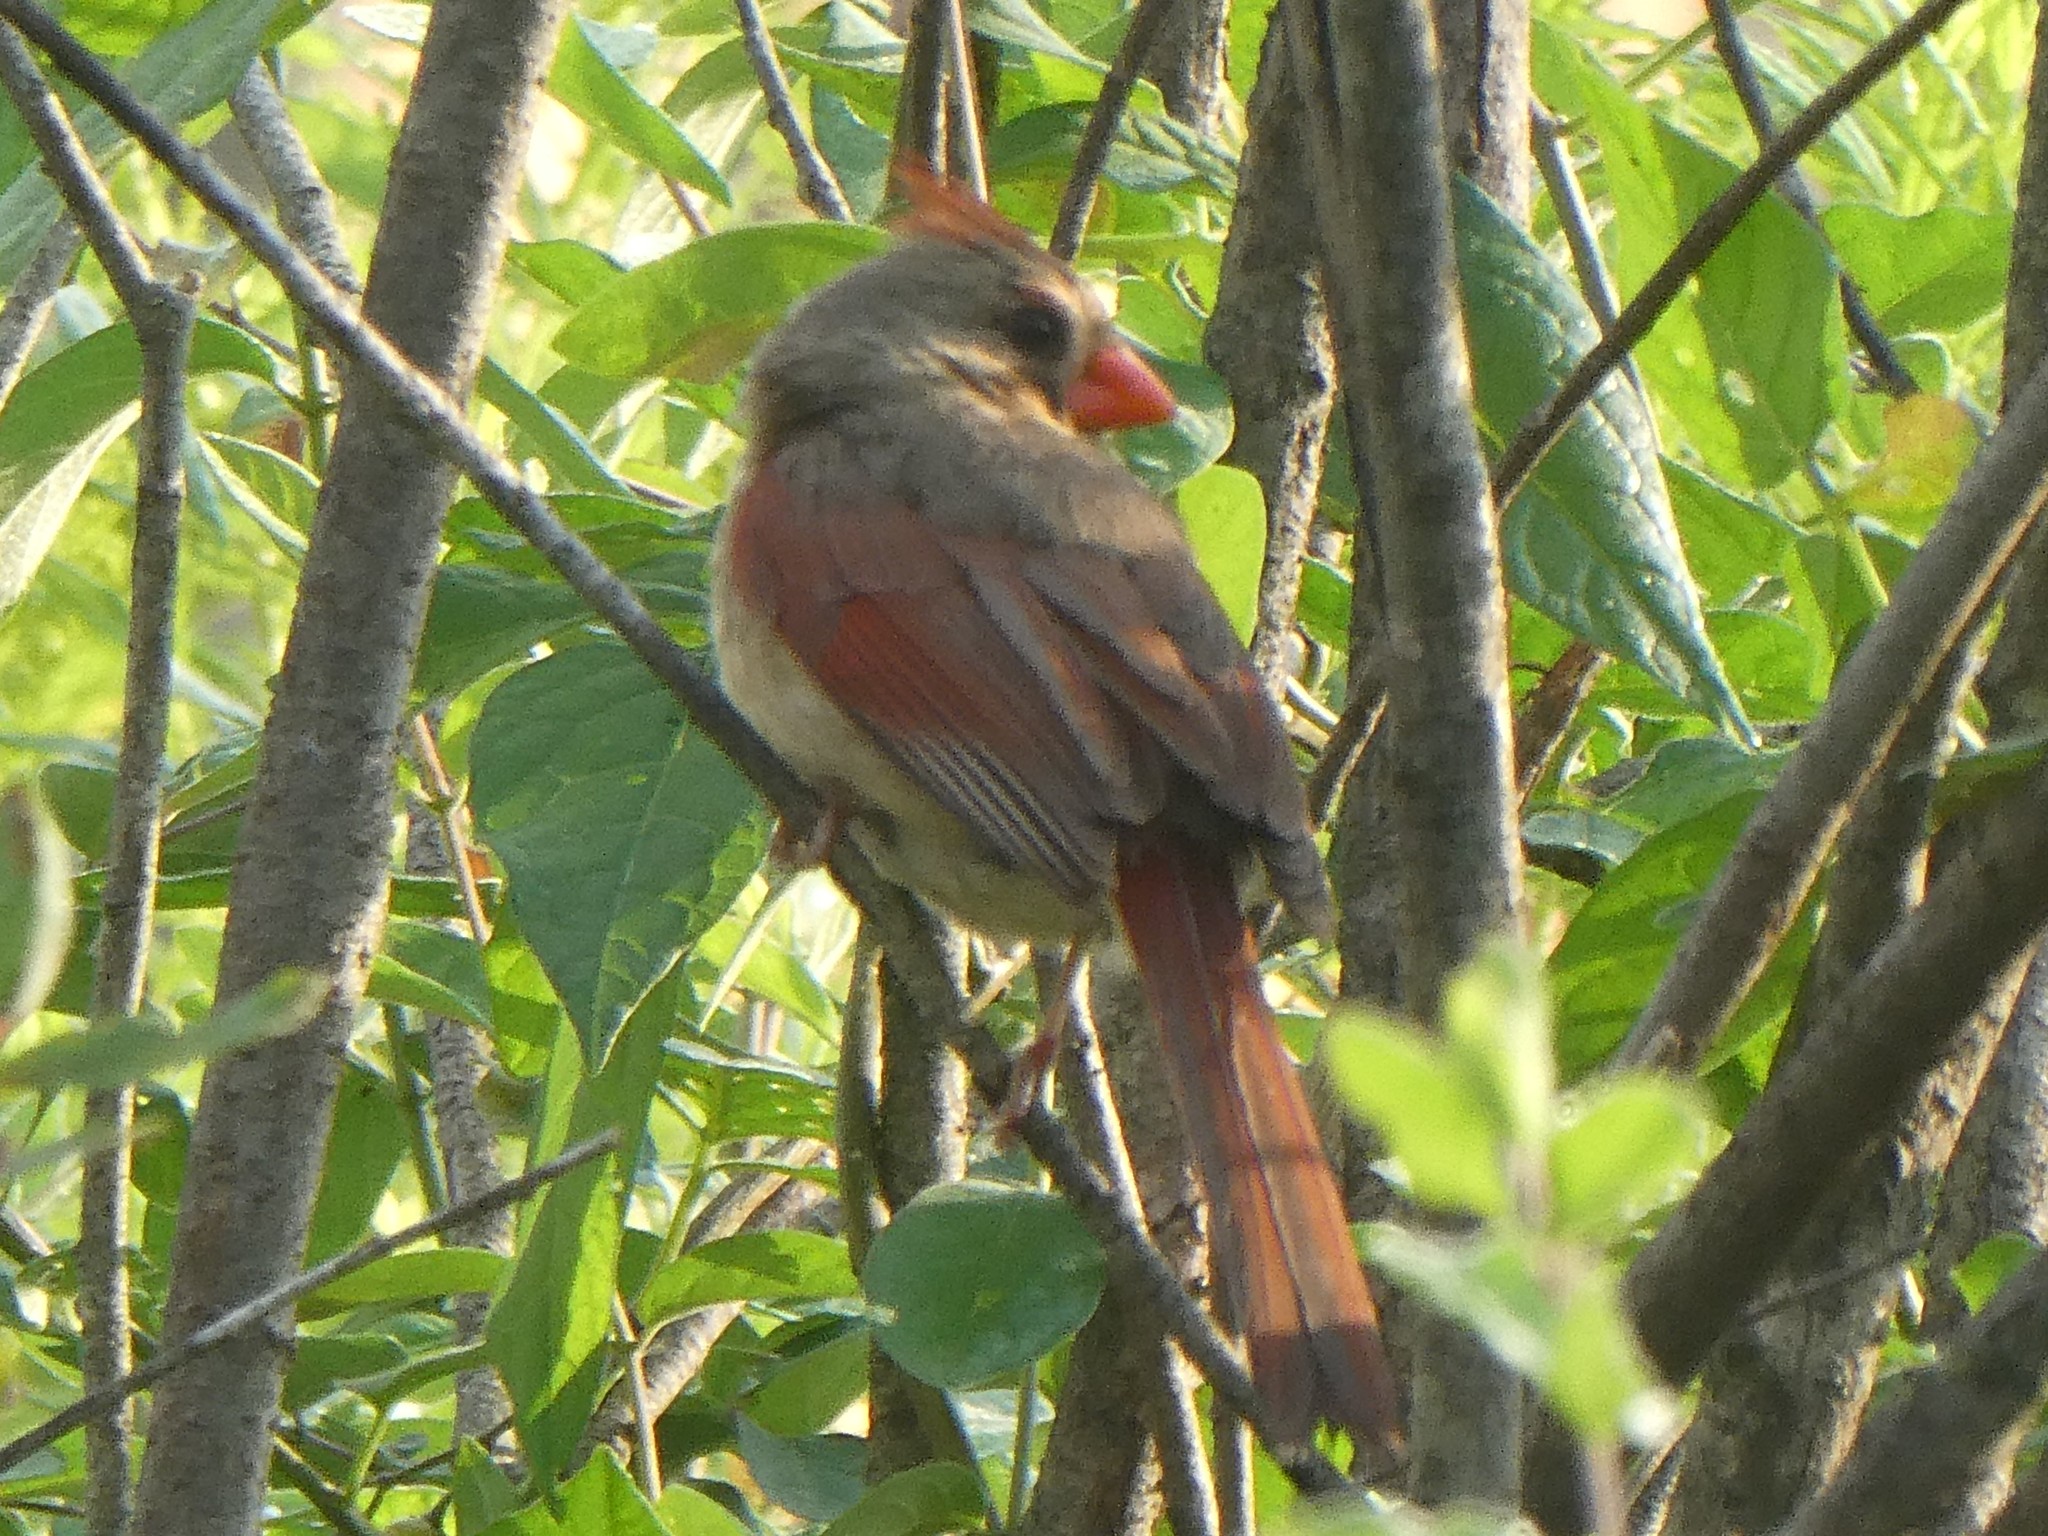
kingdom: Animalia
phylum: Chordata
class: Aves
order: Passeriformes
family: Cardinalidae
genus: Cardinalis
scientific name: Cardinalis cardinalis
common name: Northern cardinal
